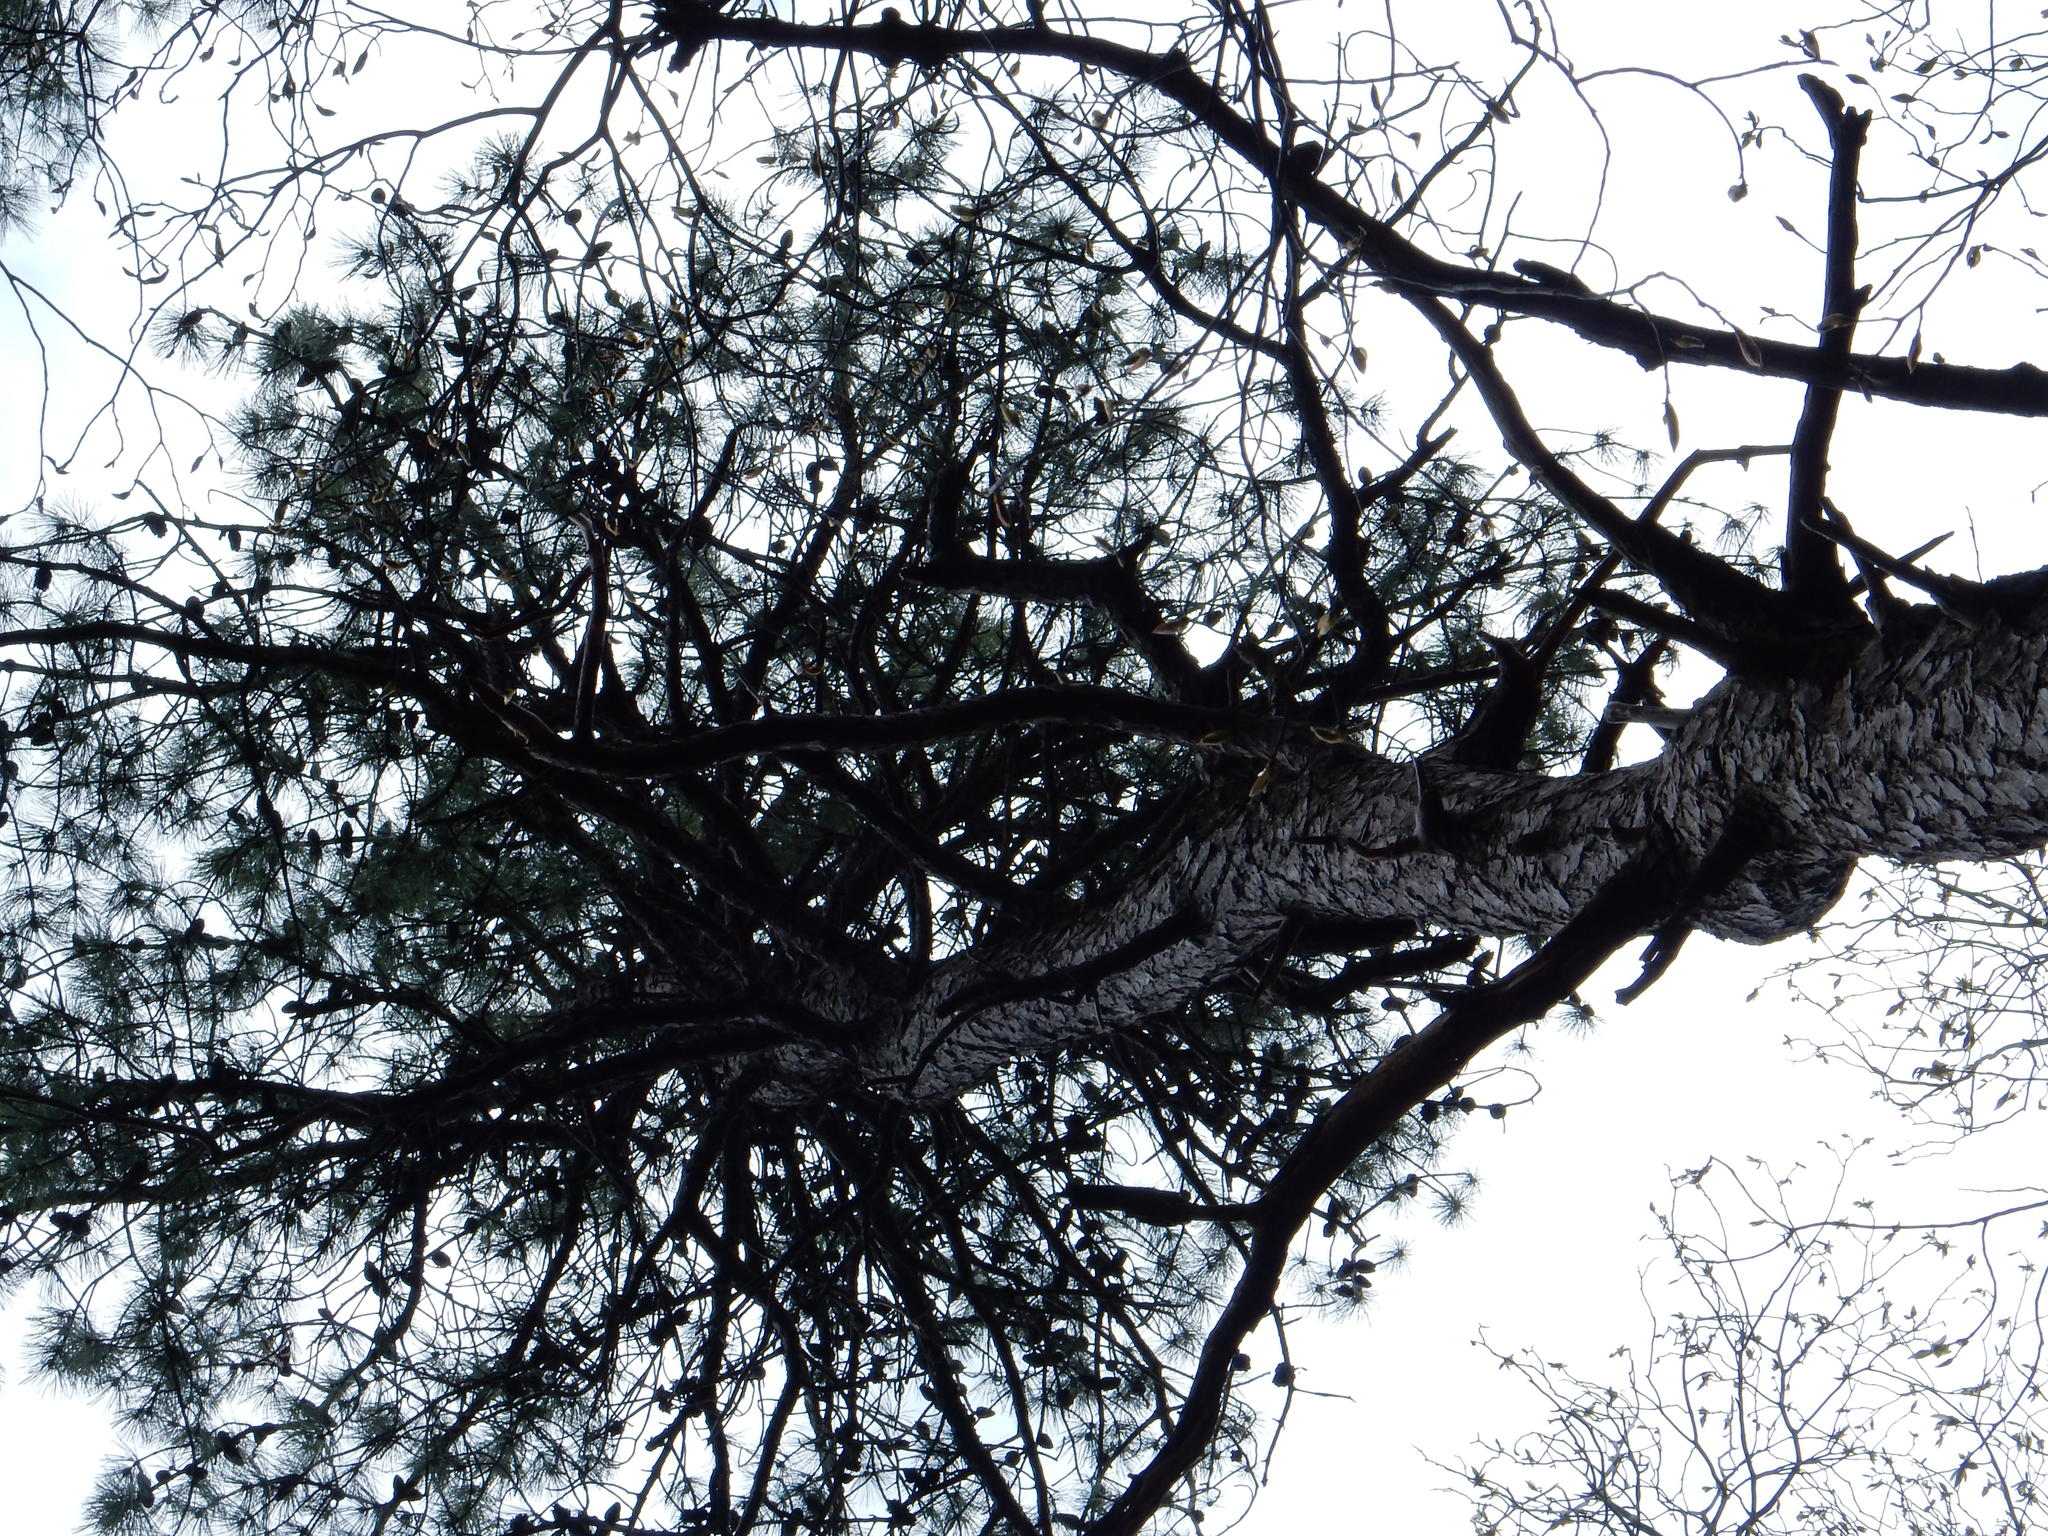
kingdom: Plantae
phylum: Tracheophyta
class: Pinopsida
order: Pinales
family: Pinaceae
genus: Pinus
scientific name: Pinus rigida
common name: Pitch pine
